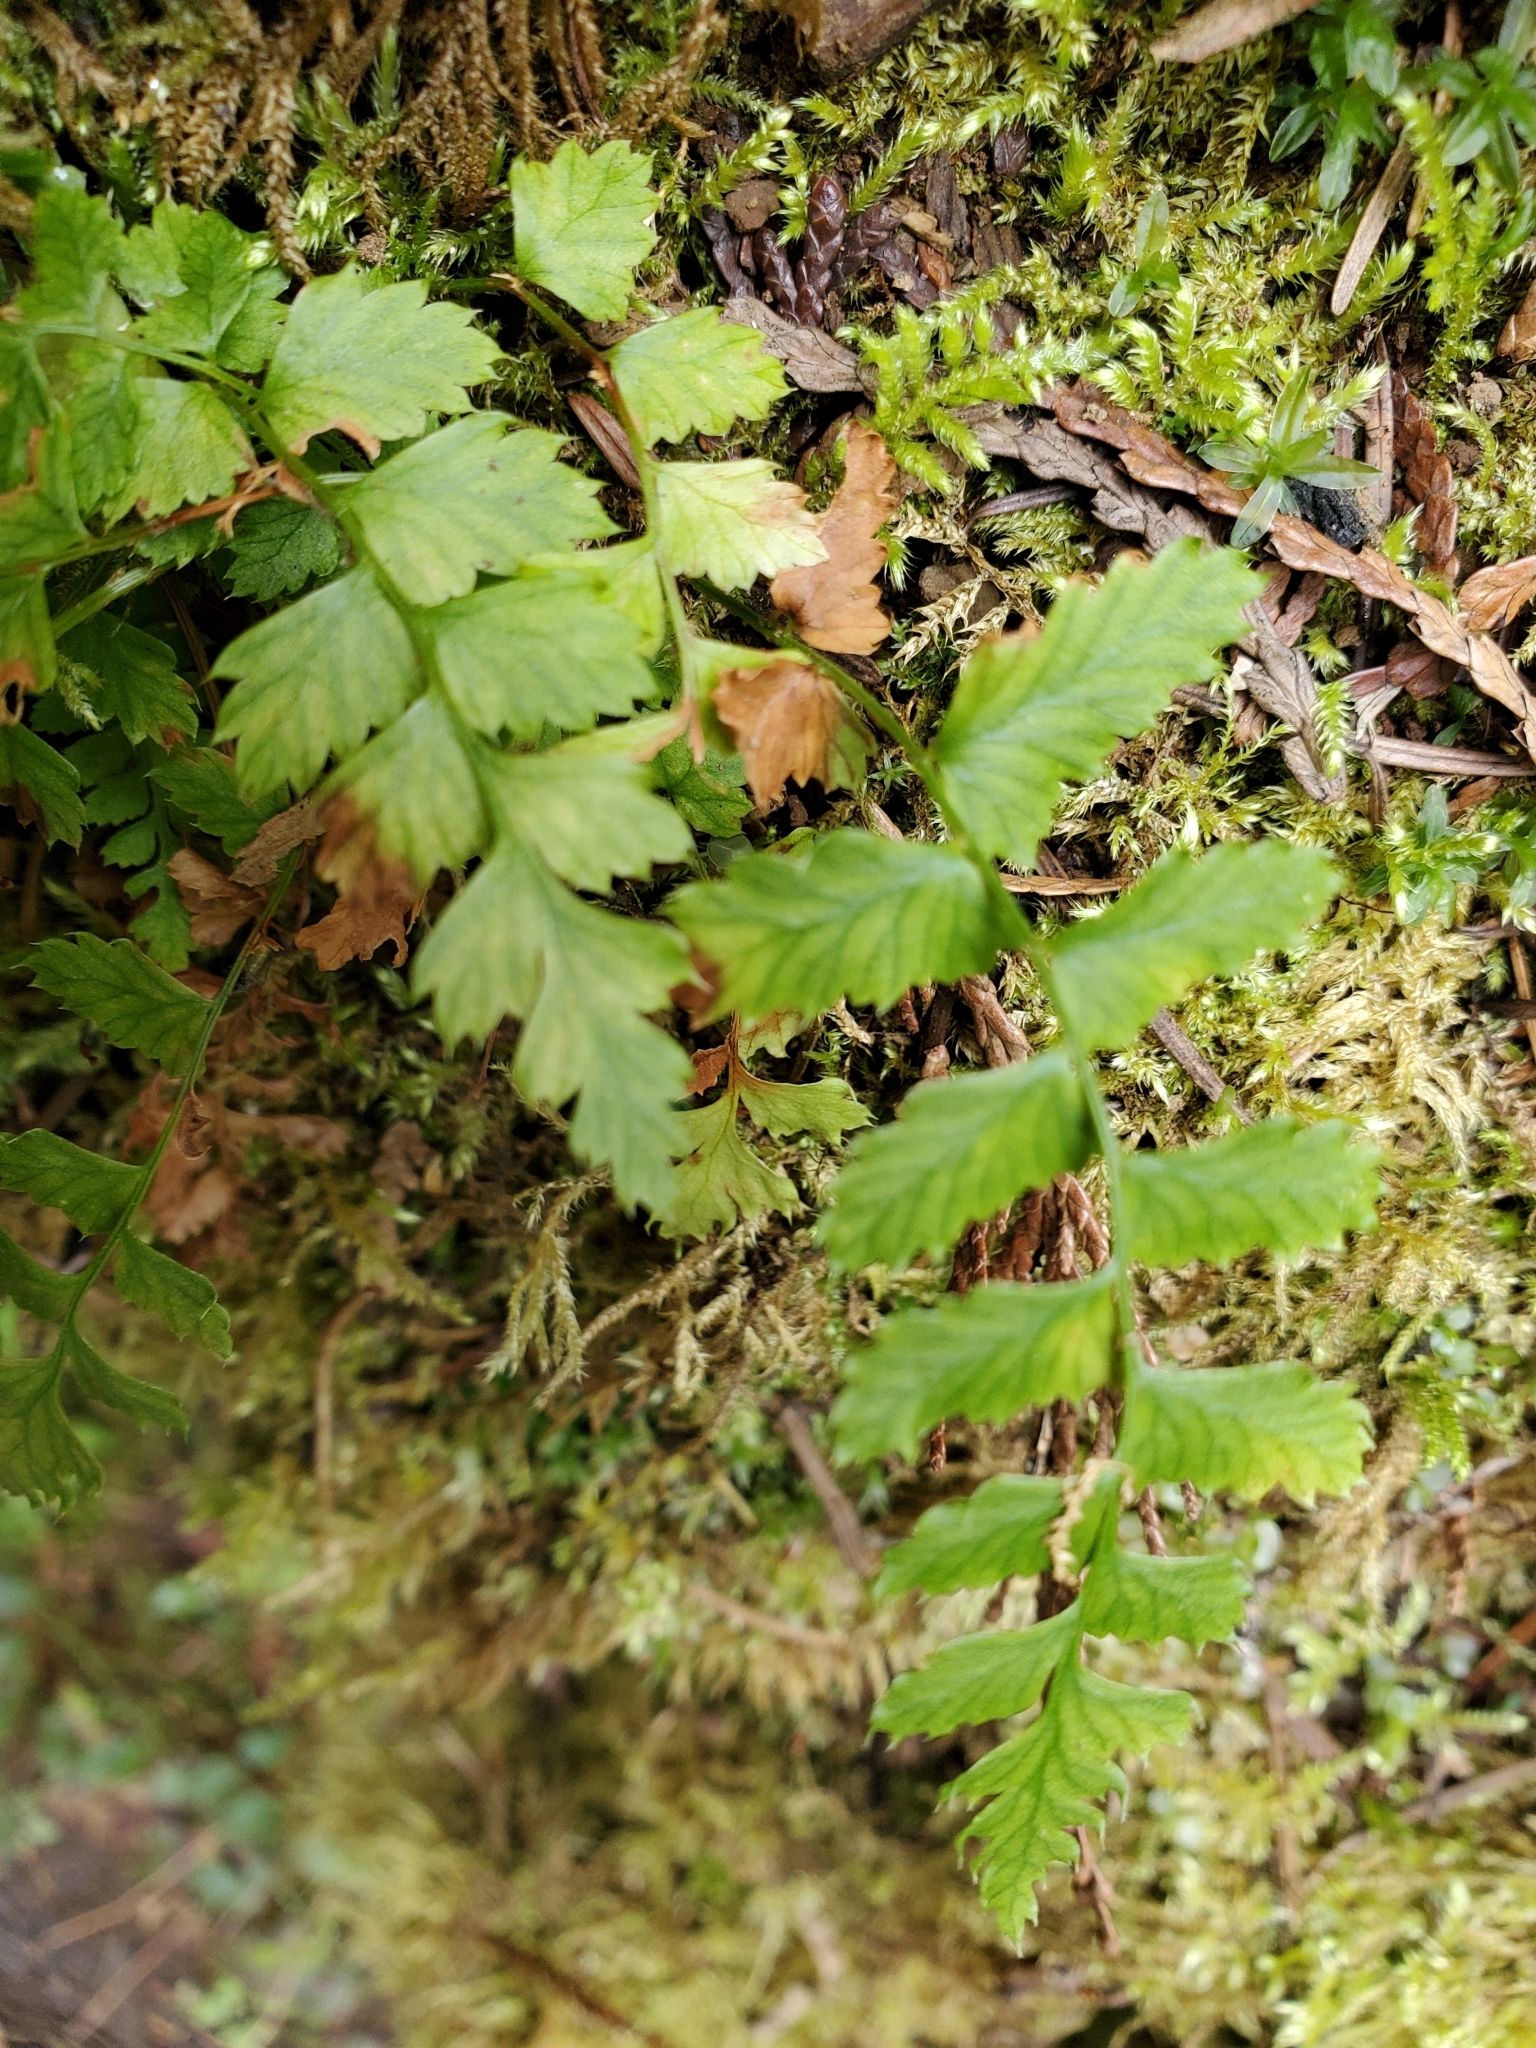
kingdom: Plantae
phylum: Tracheophyta
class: Polypodiopsida
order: Polypodiales
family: Dryopteridaceae
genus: Polystichum
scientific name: Polystichum munitum
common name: Western sword-fern
